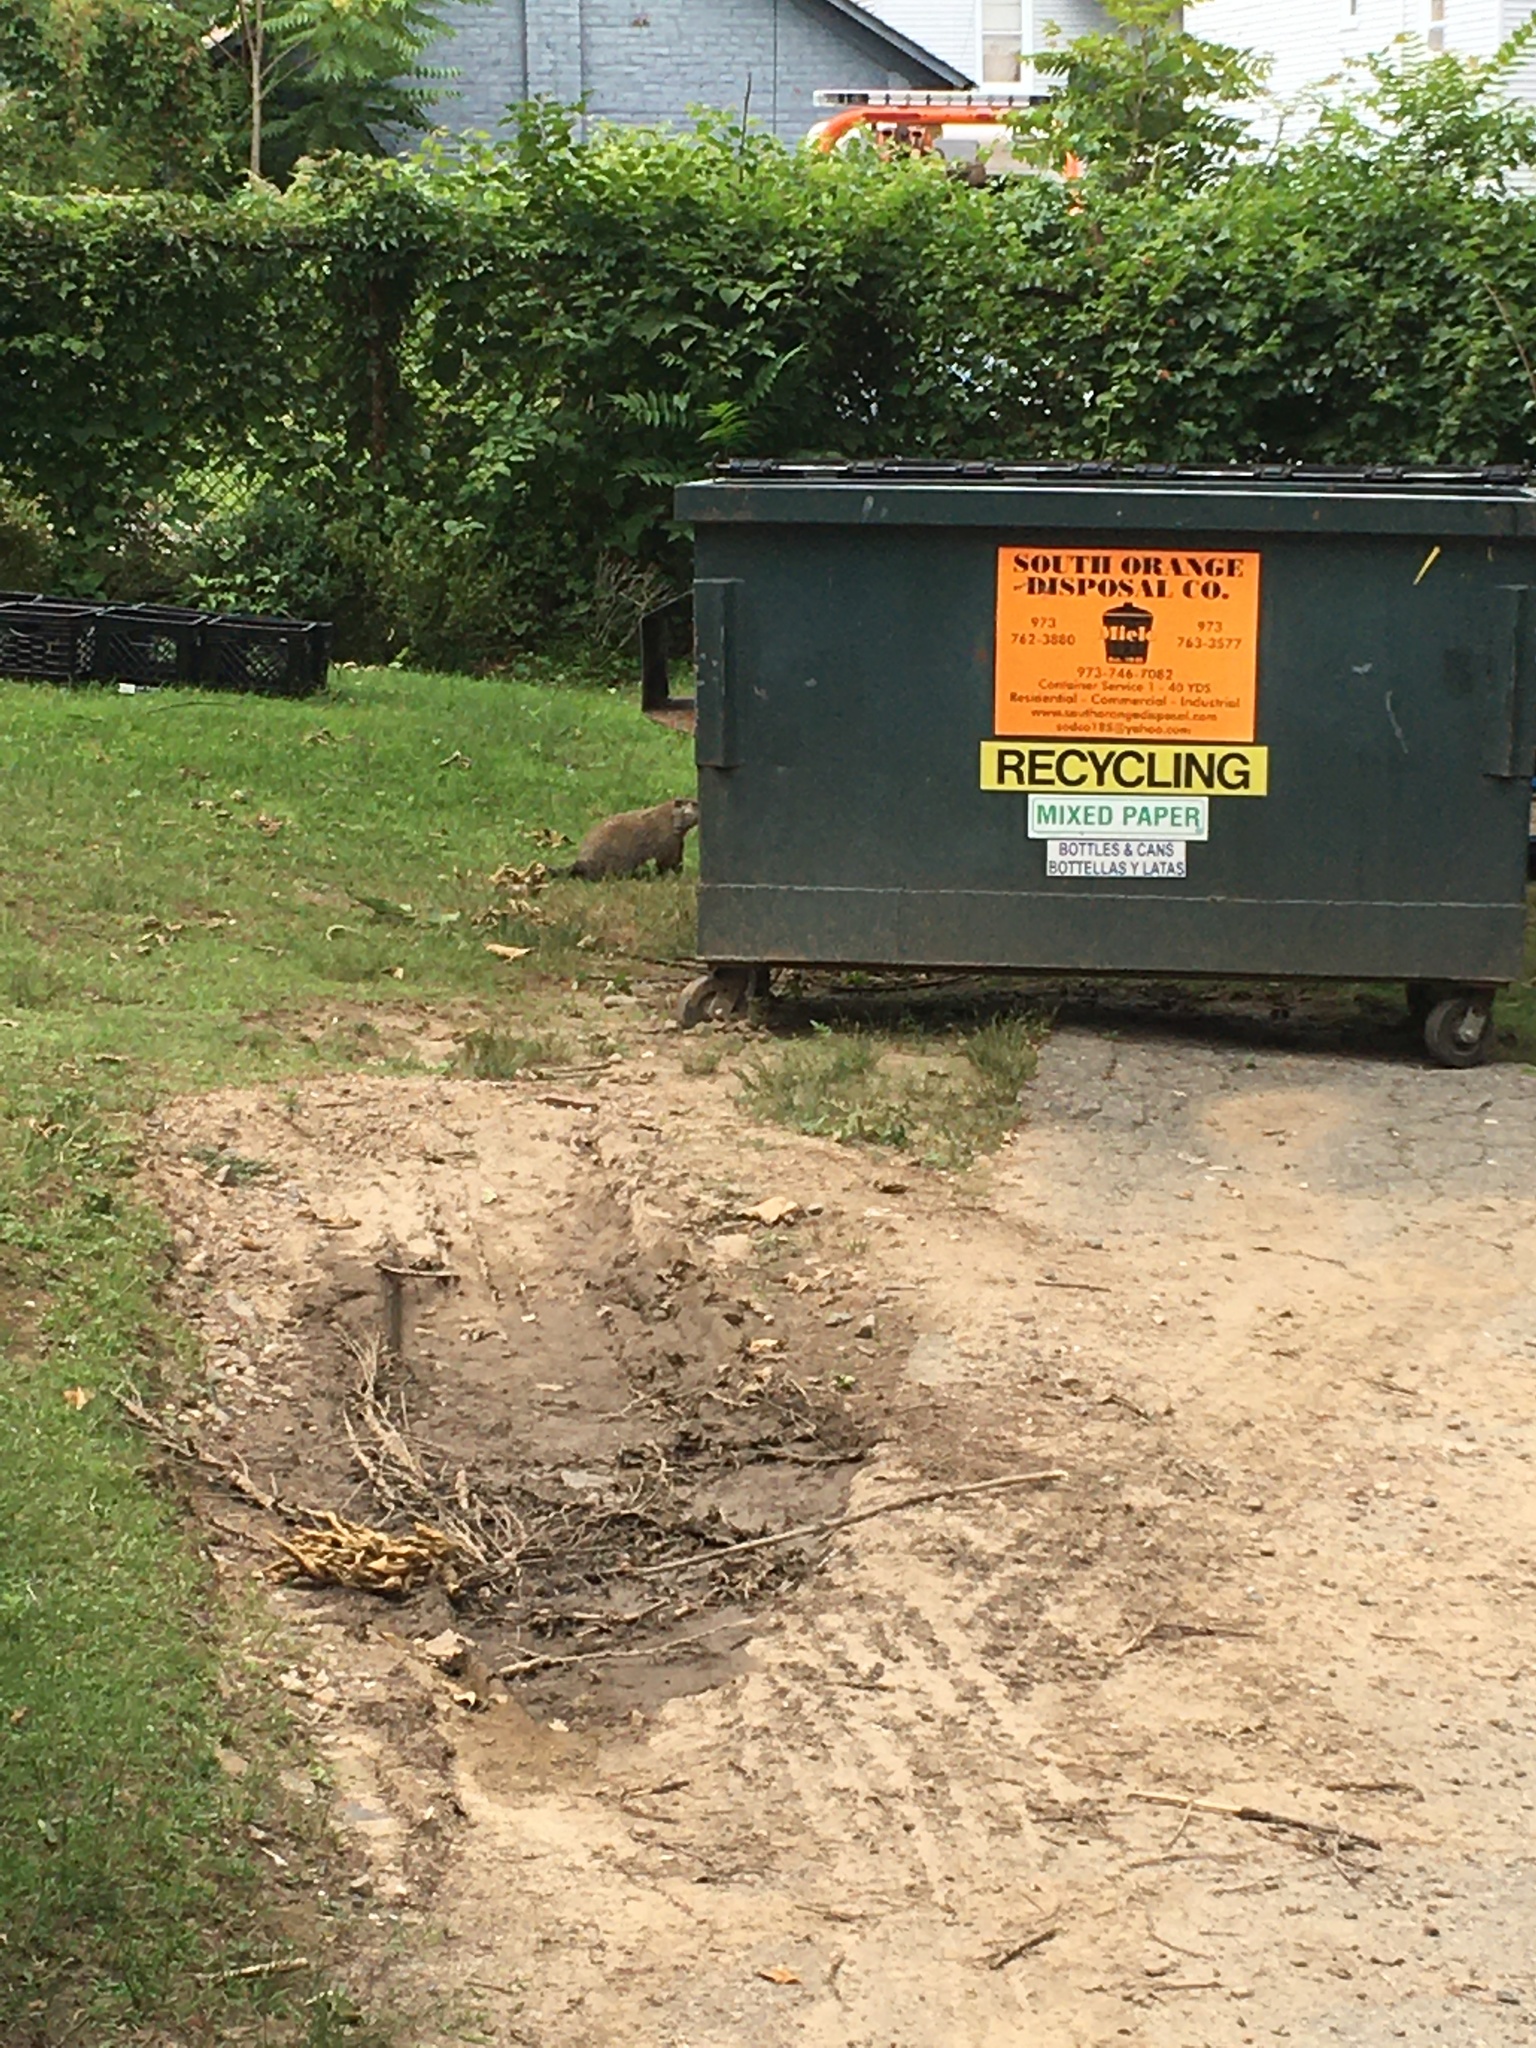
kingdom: Animalia
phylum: Chordata
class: Mammalia
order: Rodentia
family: Sciuridae
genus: Marmota
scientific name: Marmota monax
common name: Groundhog
